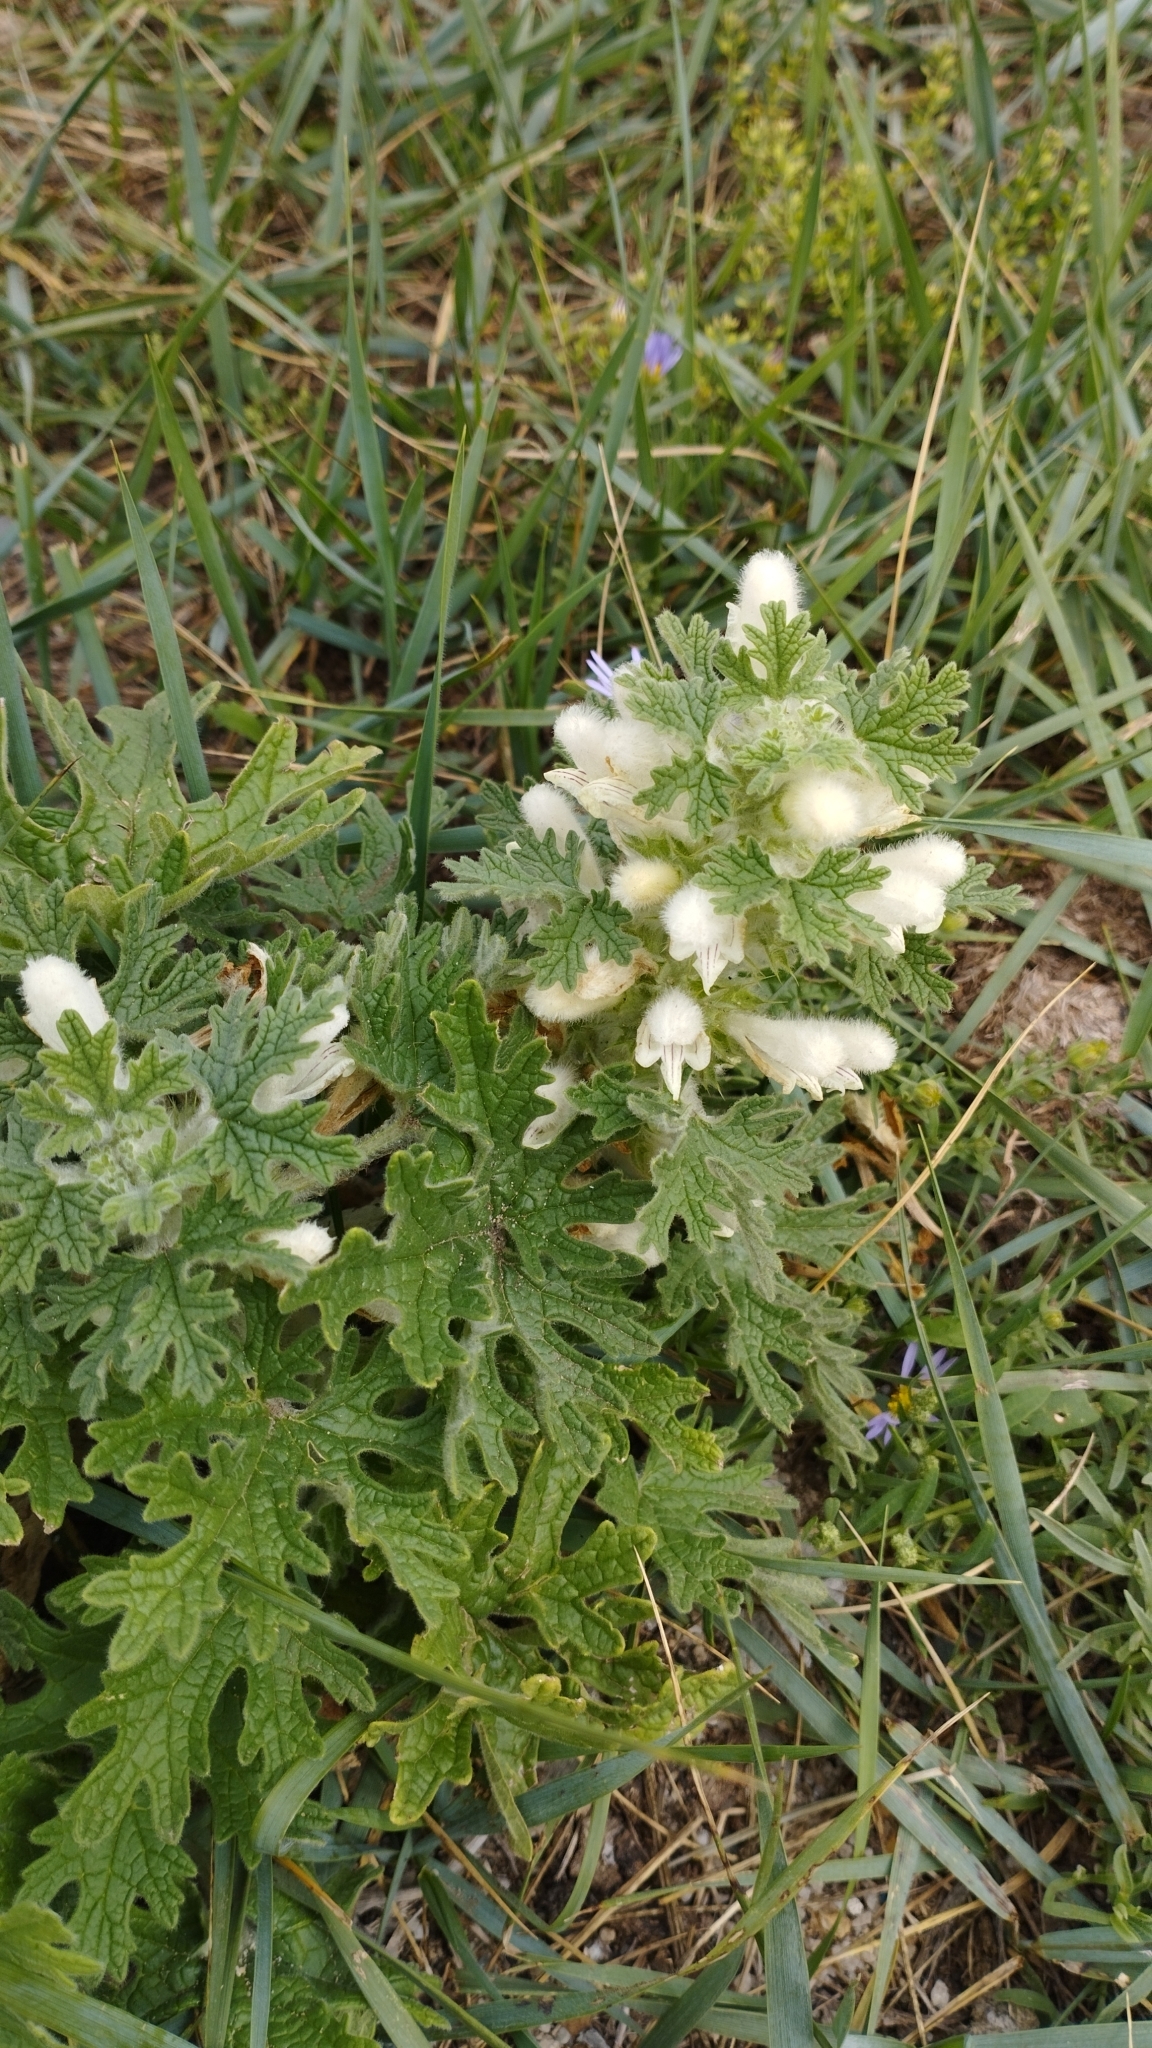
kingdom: Plantae
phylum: Tracheophyta
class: Magnoliopsida
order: Lamiales
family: Lamiaceae
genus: Panzerina
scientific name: Panzerina lanata
